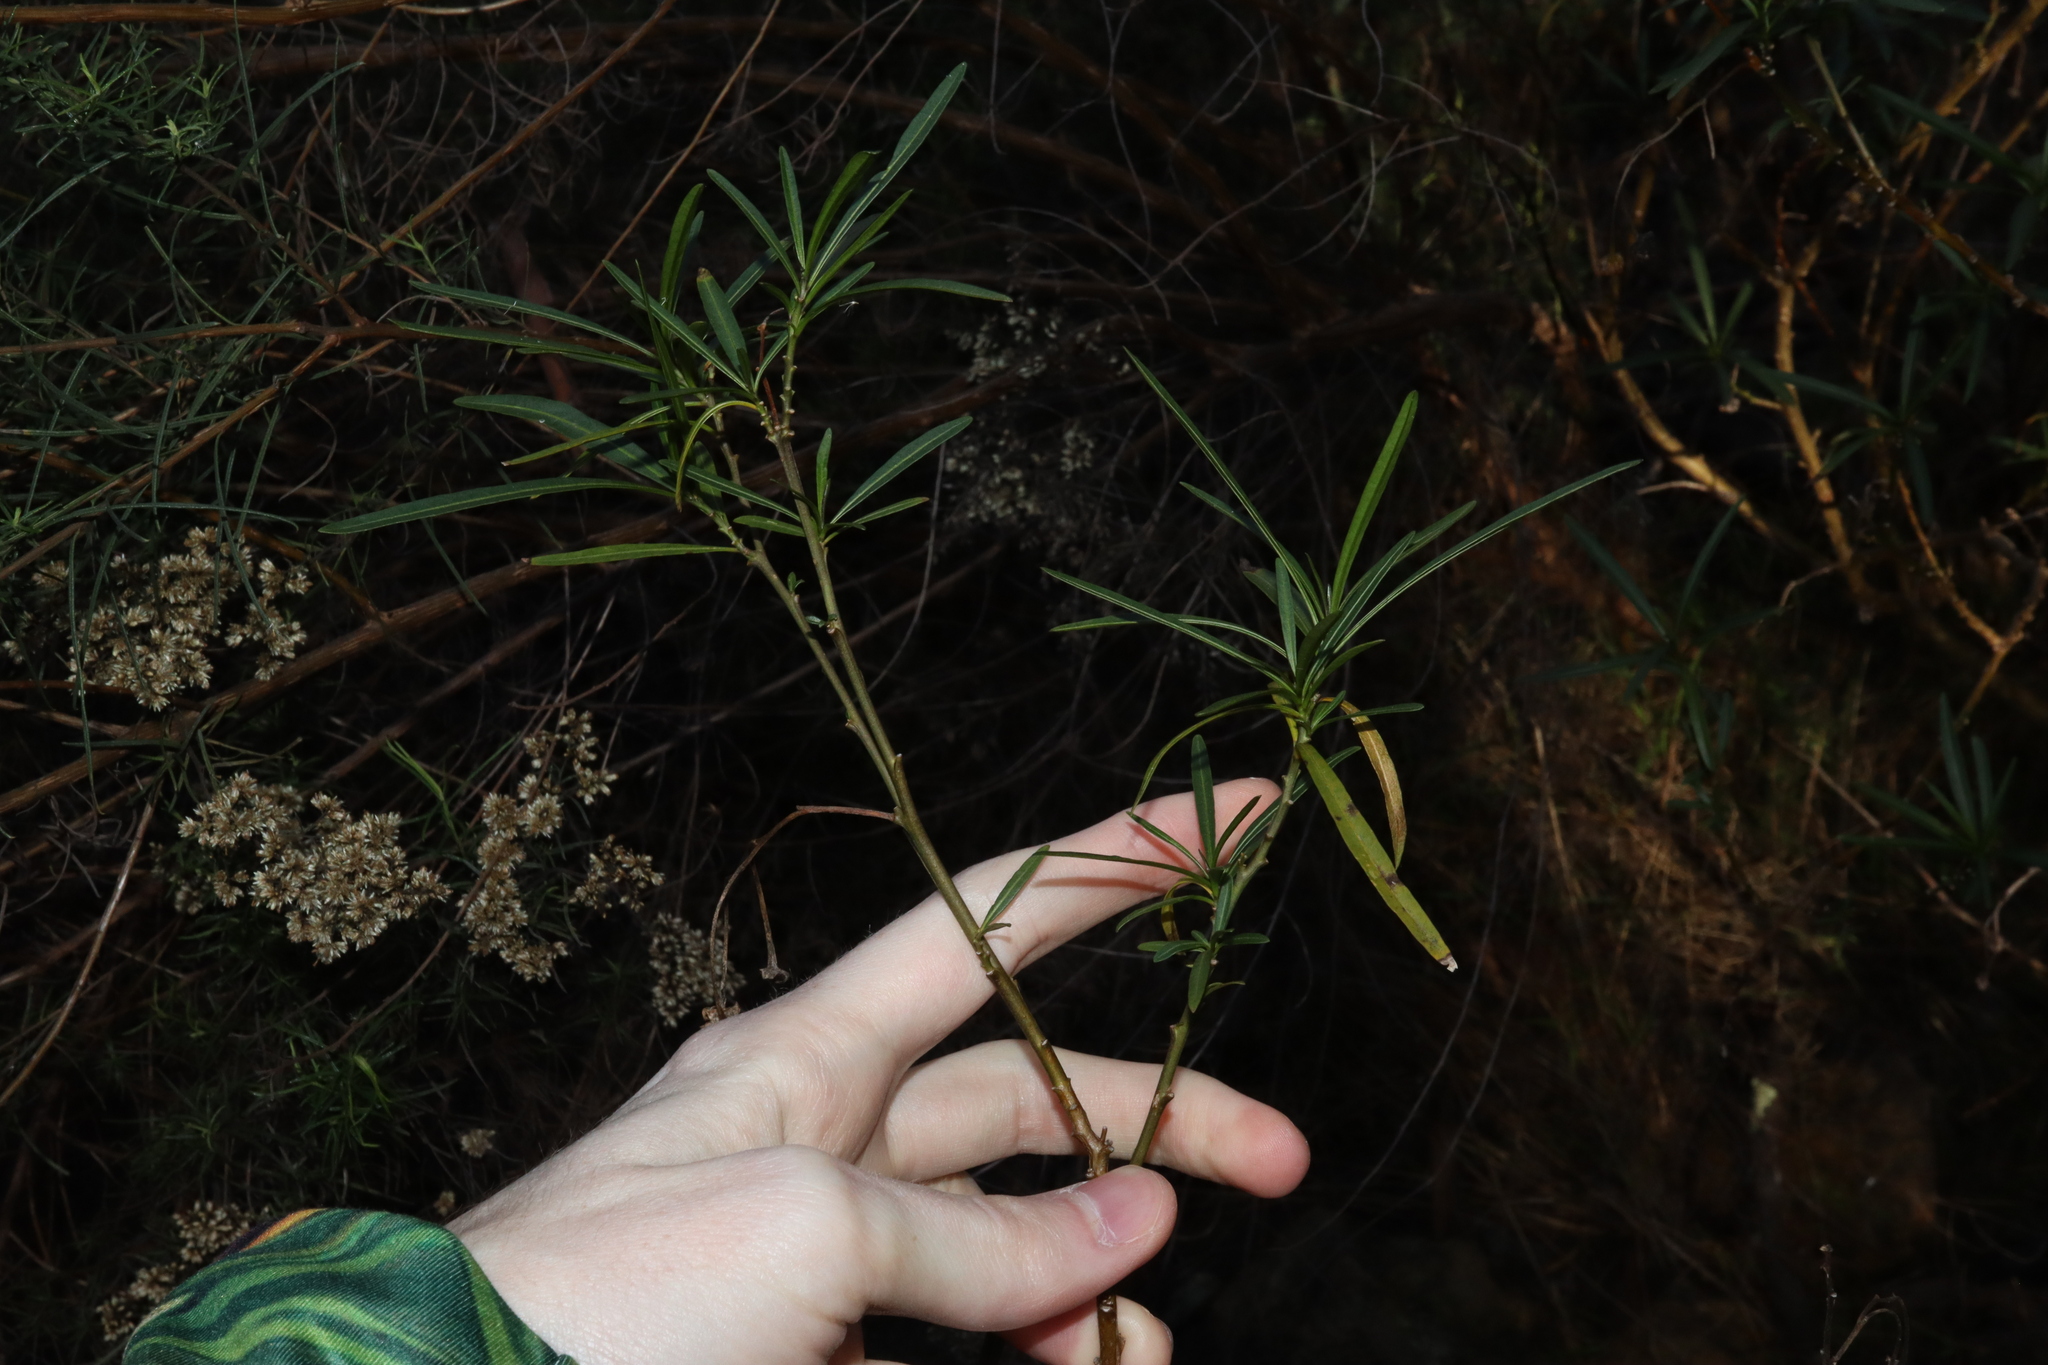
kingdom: Plantae
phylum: Tracheophyta
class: Magnoliopsida
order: Solanales
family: Solanaceae
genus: Solanum
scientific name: Solanum linearifolium
